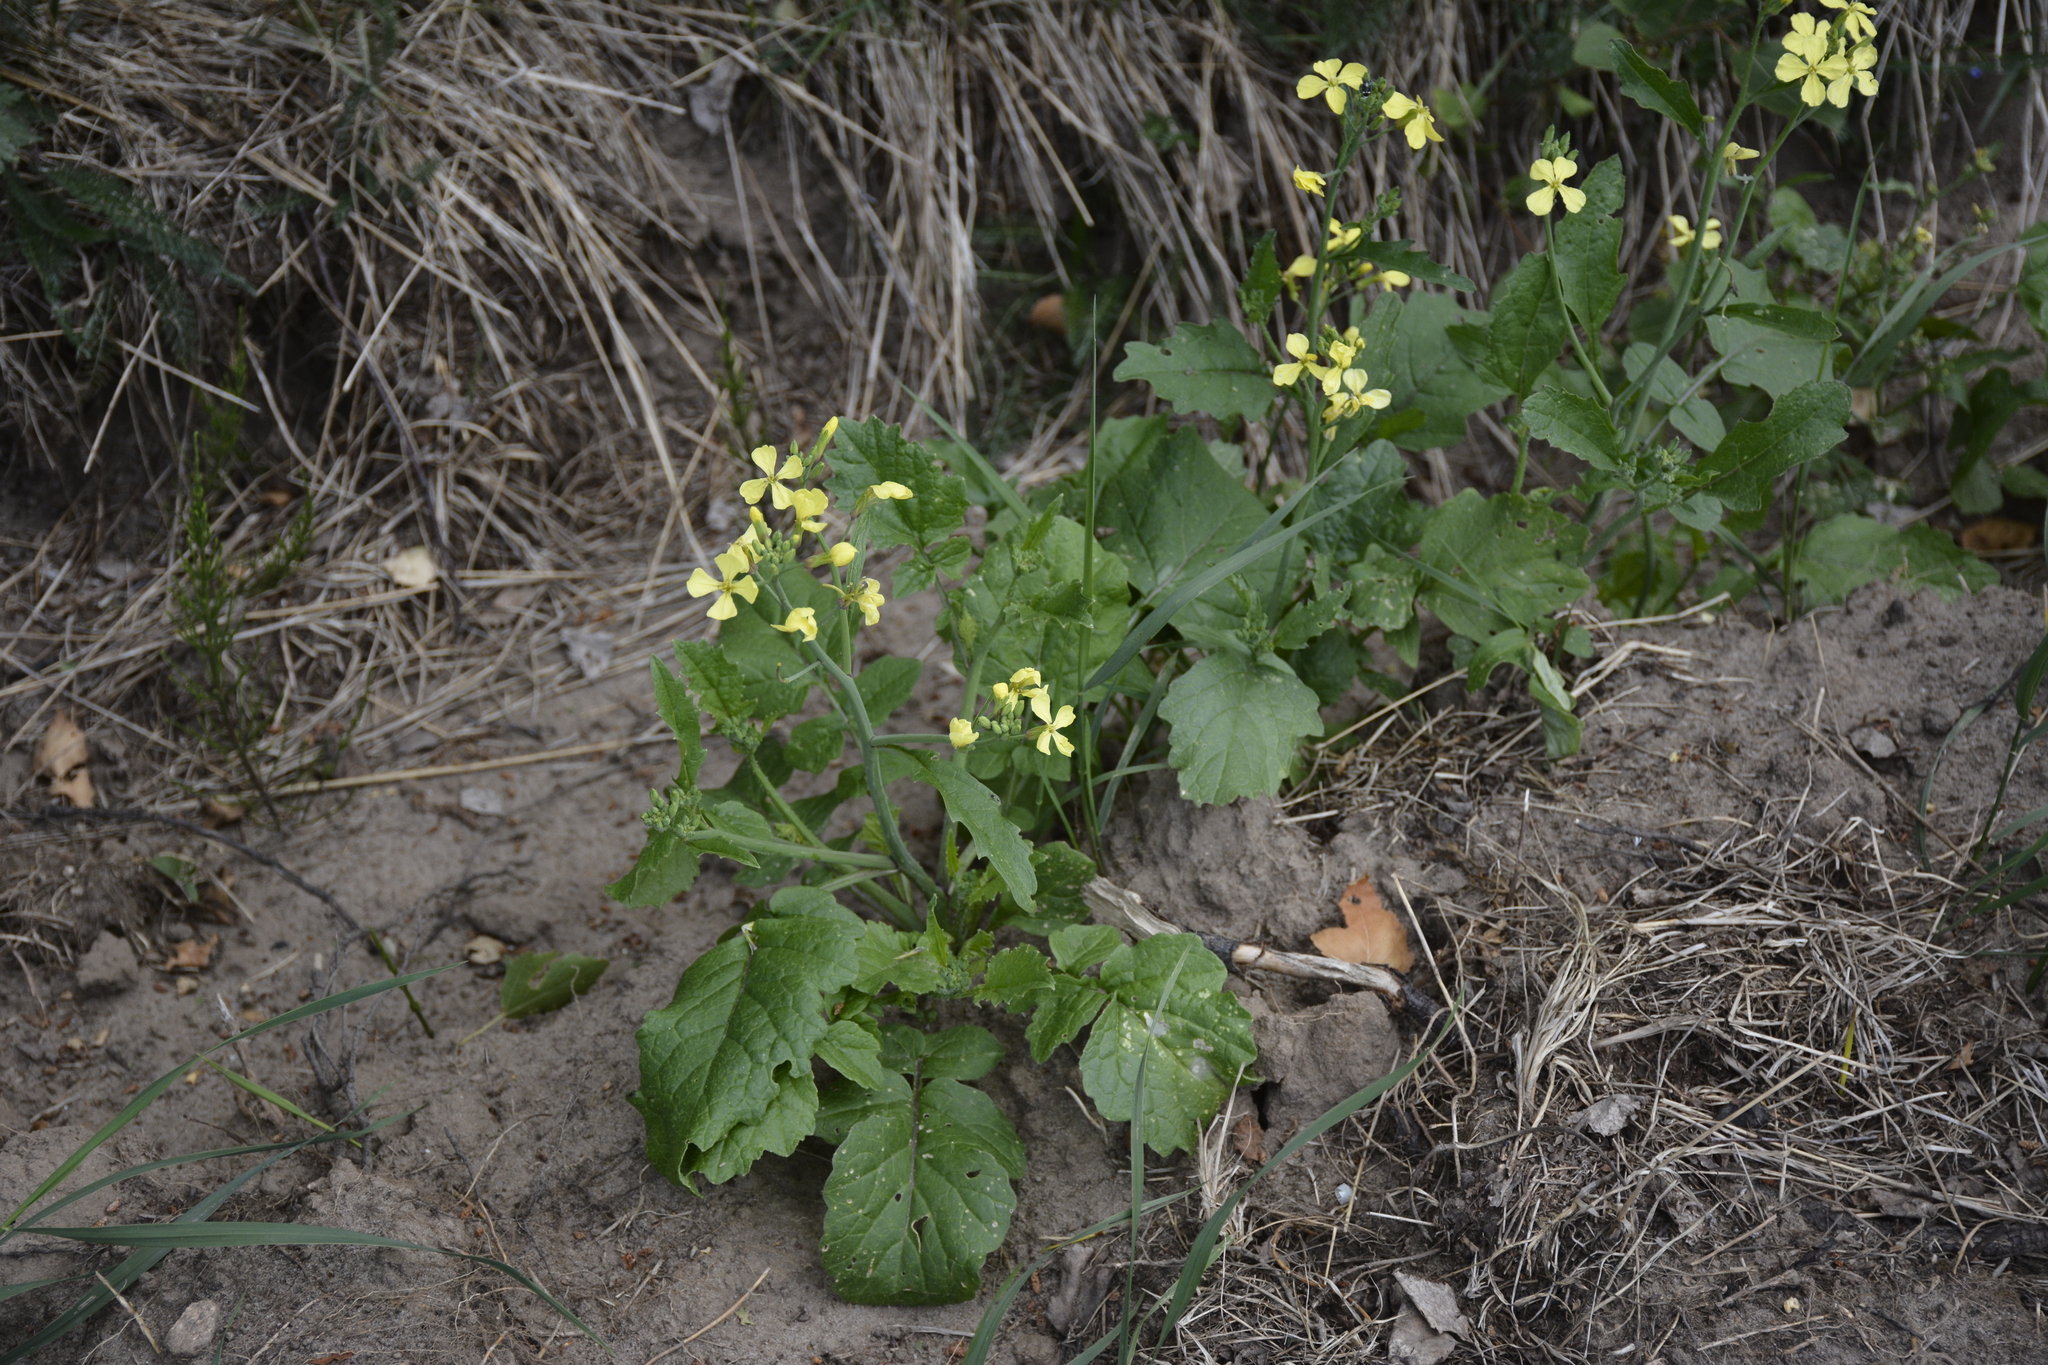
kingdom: Plantae
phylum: Tracheophyta
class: Magnoliopsida
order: Brassicales
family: Brassicaceae
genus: Raphanus
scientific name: Raphanus raphanistrum
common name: Wild radish
